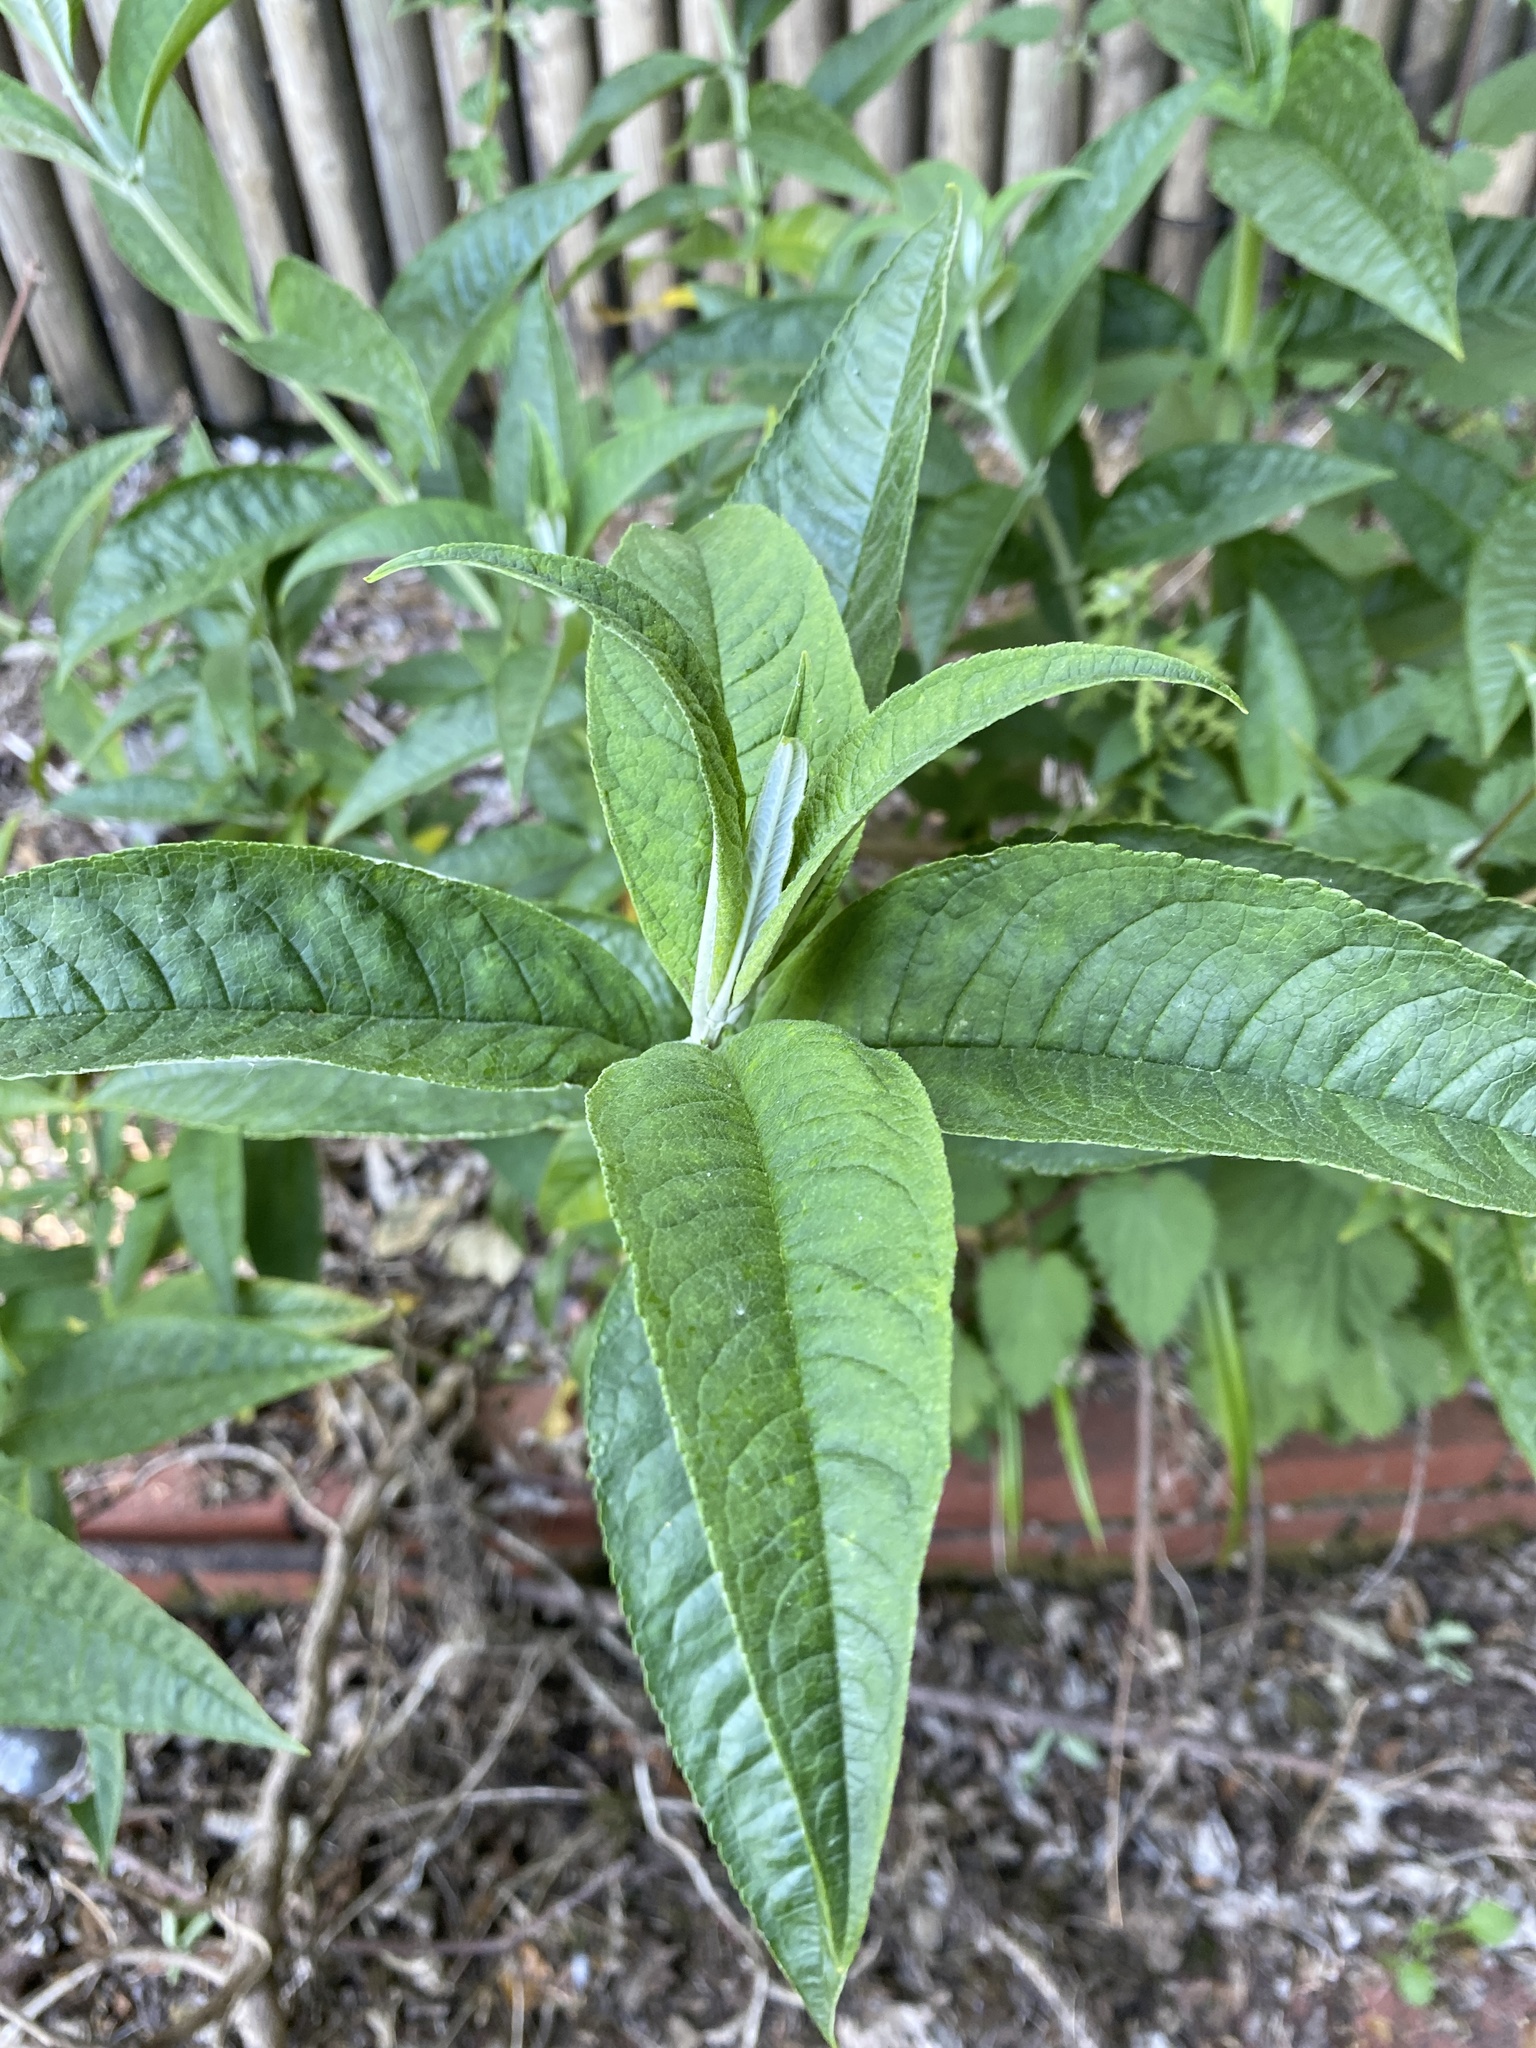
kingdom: Plantae
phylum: Tracheophyta
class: Magnoliopsida
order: Lamiales
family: Scrophulariaceae
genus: Buddleja
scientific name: Buddleja davidii
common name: Butterfly-bush
